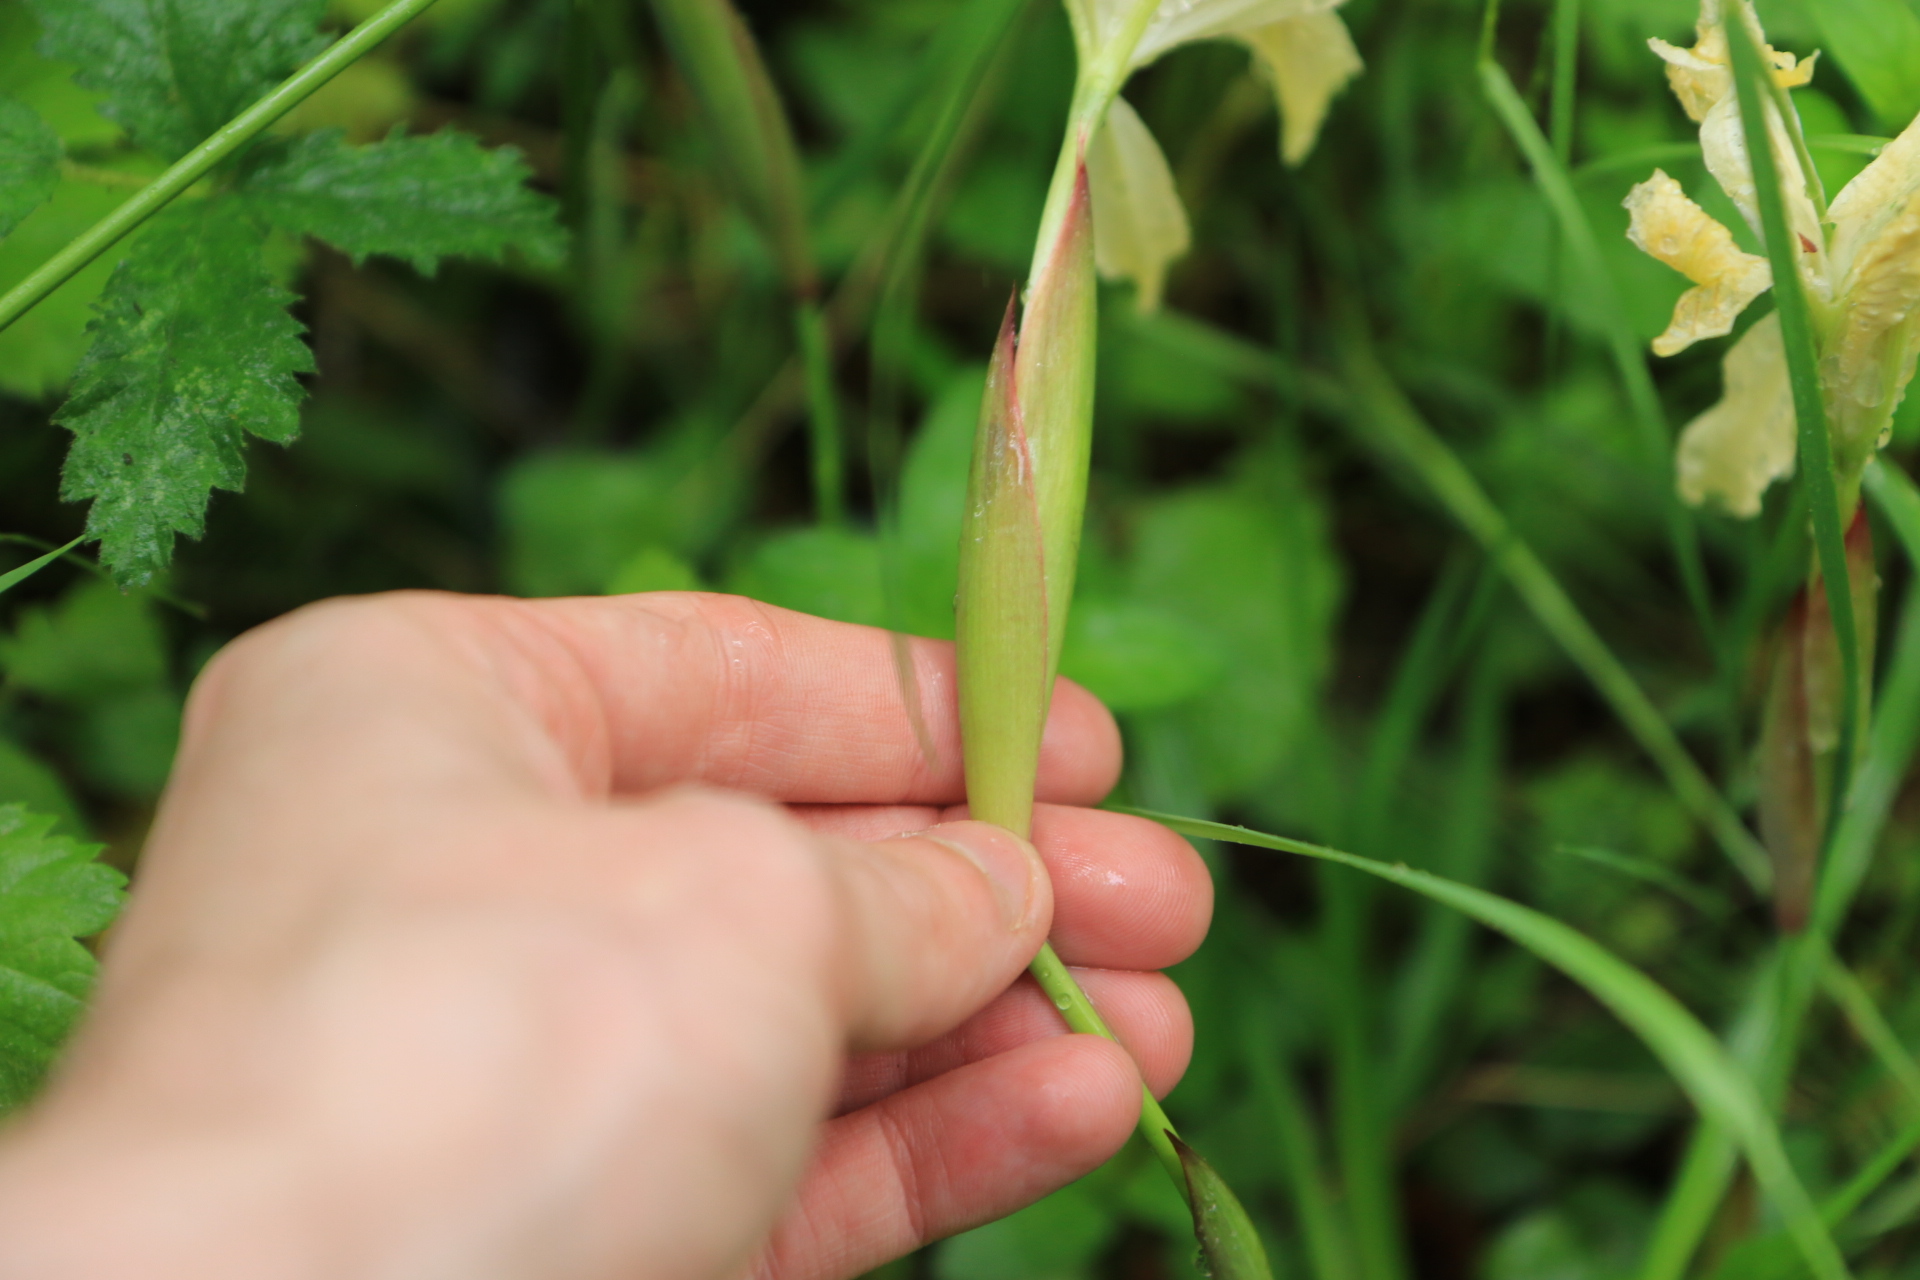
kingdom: Plantae
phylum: Tracheophyta
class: Liliopsida
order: Asparagales
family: Iridaceae
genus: Iris
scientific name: Iris chrysophylla
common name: Yellow-leaf iris
